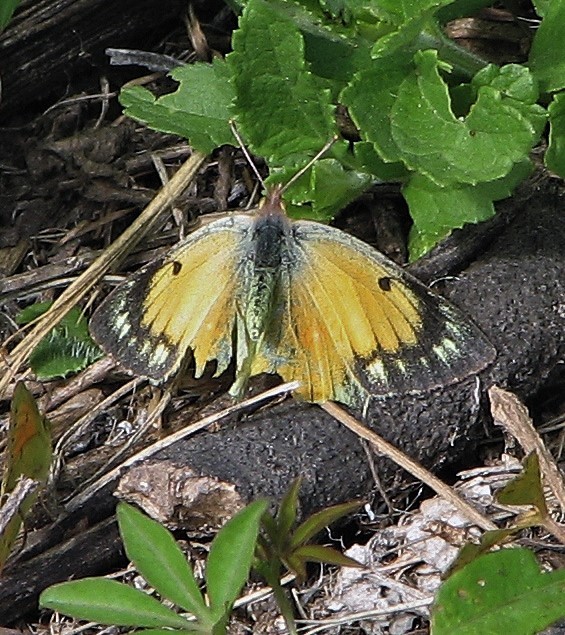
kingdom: Animalia
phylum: Arthropoda
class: Insecta
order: Lepidoptera
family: Pieridae
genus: Colias
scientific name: Colias lesbia
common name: Lesbia clouded yellow
